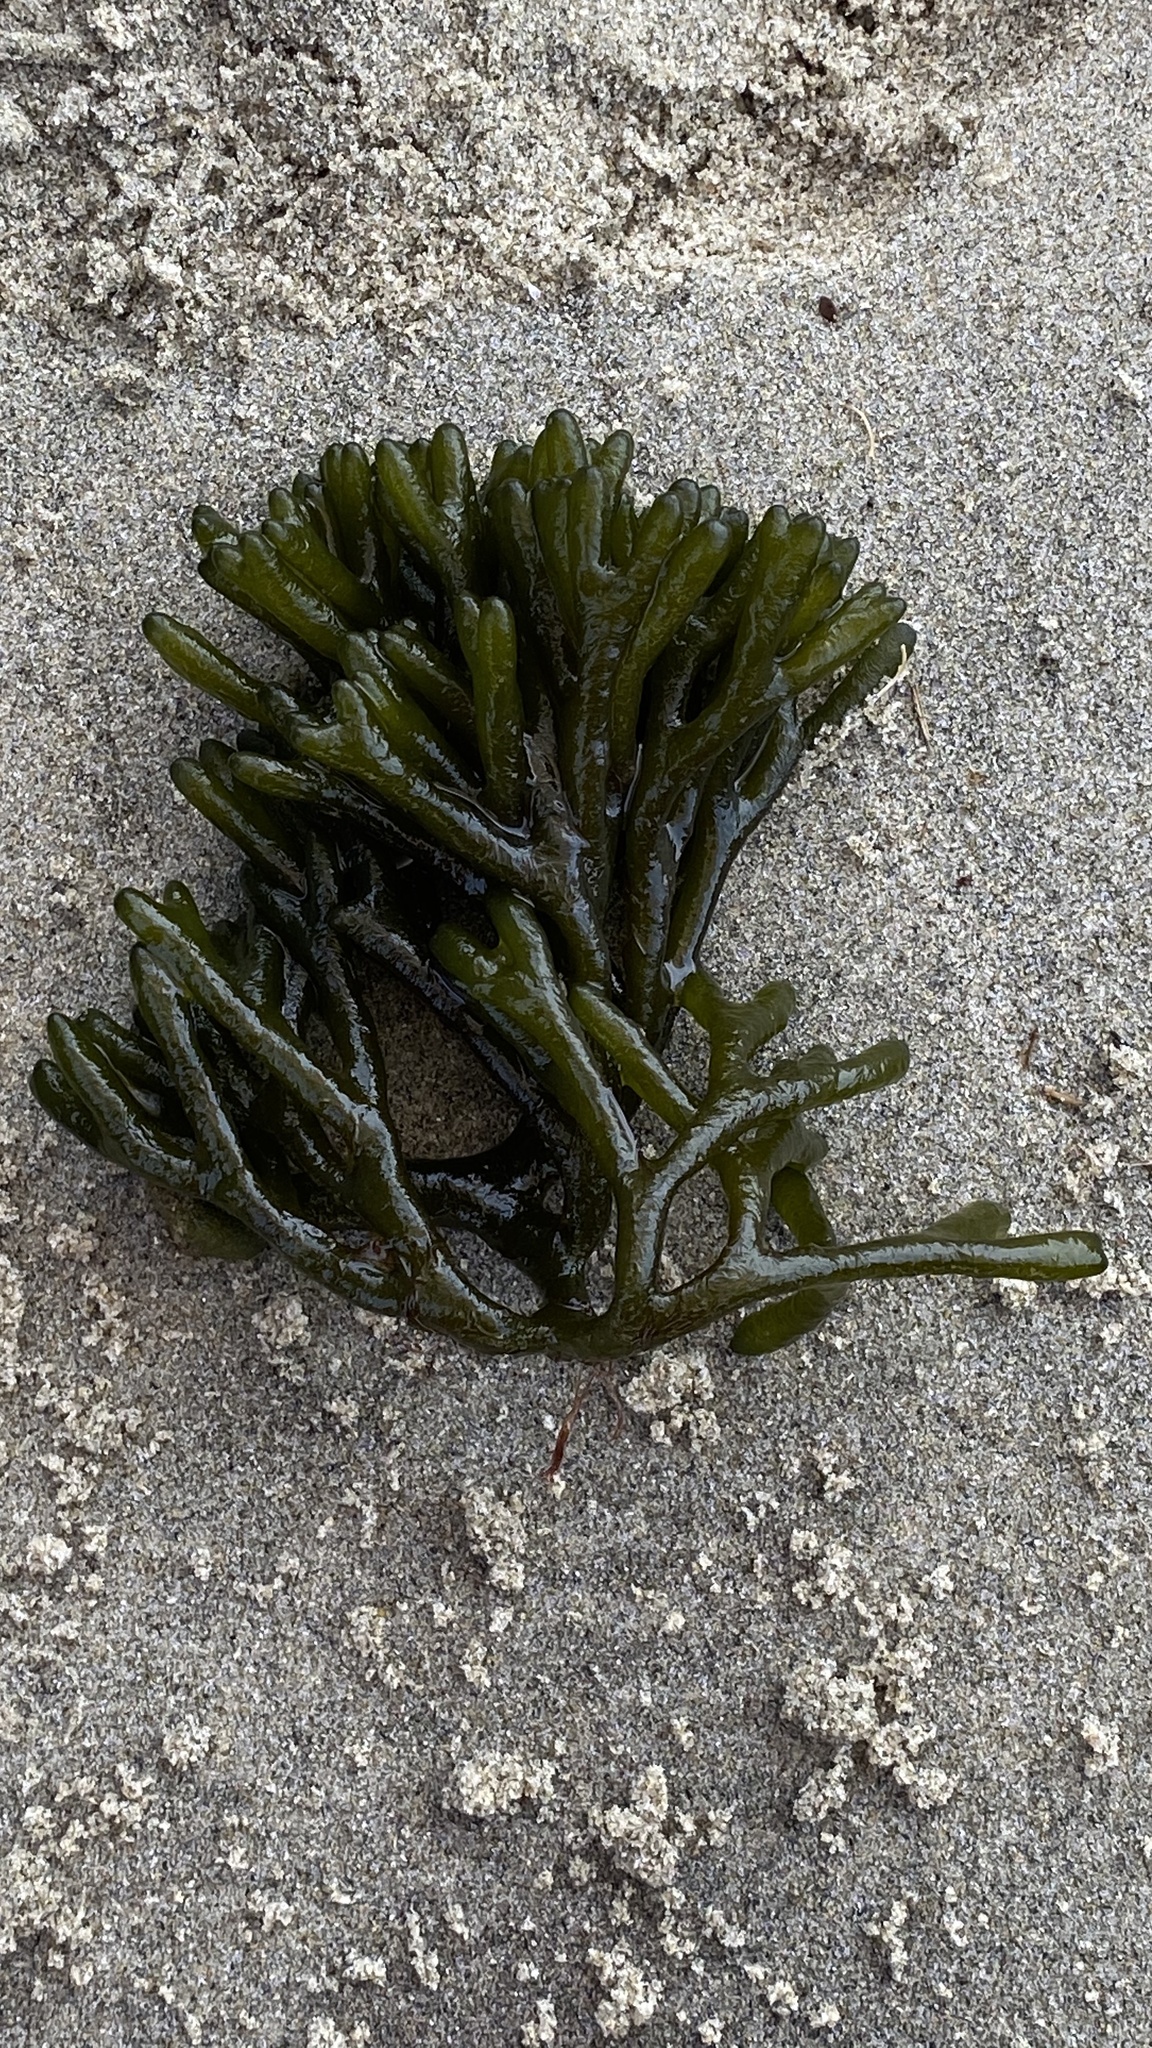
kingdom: Plantae
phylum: Chlorophyta
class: Ulvophyceae
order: Bryopsidales
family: Codiaceae
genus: Codium
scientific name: Codium fragile
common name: Dead man's fingers
